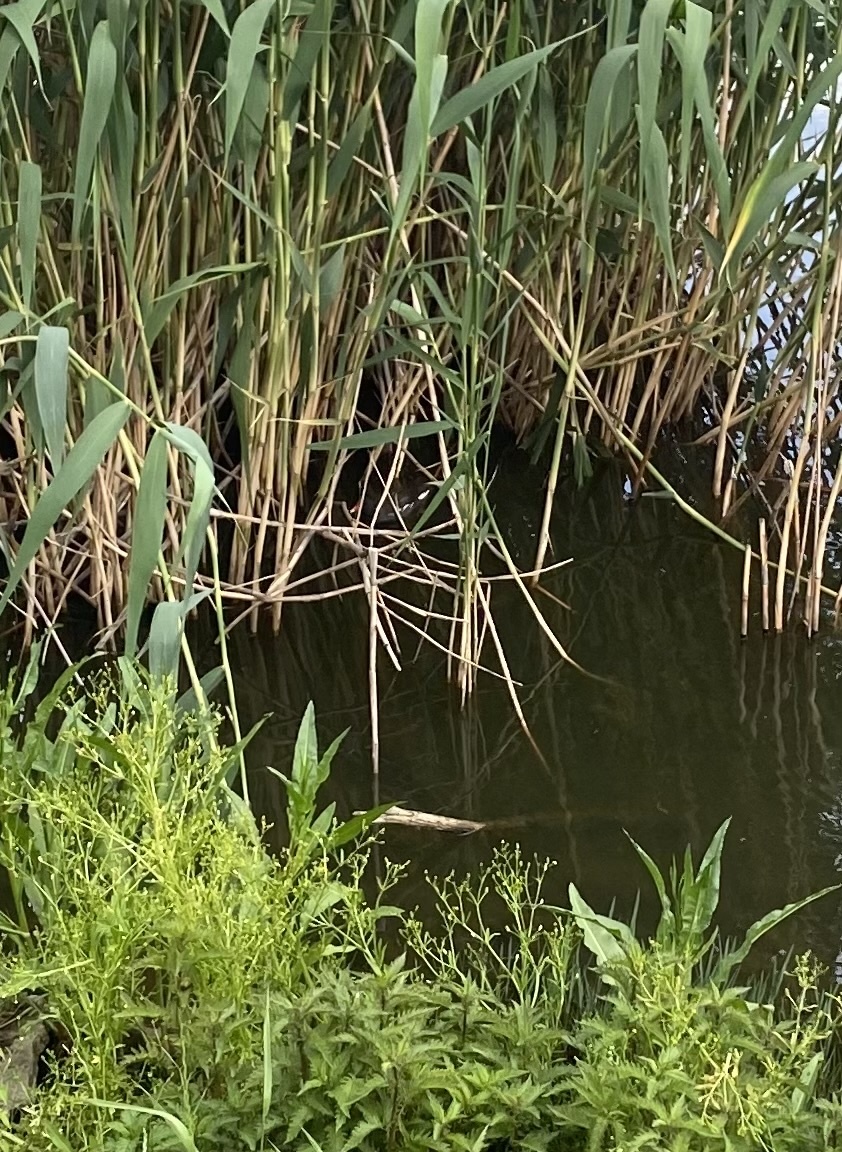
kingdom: Animalia
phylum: Chordata
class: Aves
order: Gruiformes
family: Rallidae
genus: Gallinula
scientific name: Gallinula chloropus
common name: Common moorhen
